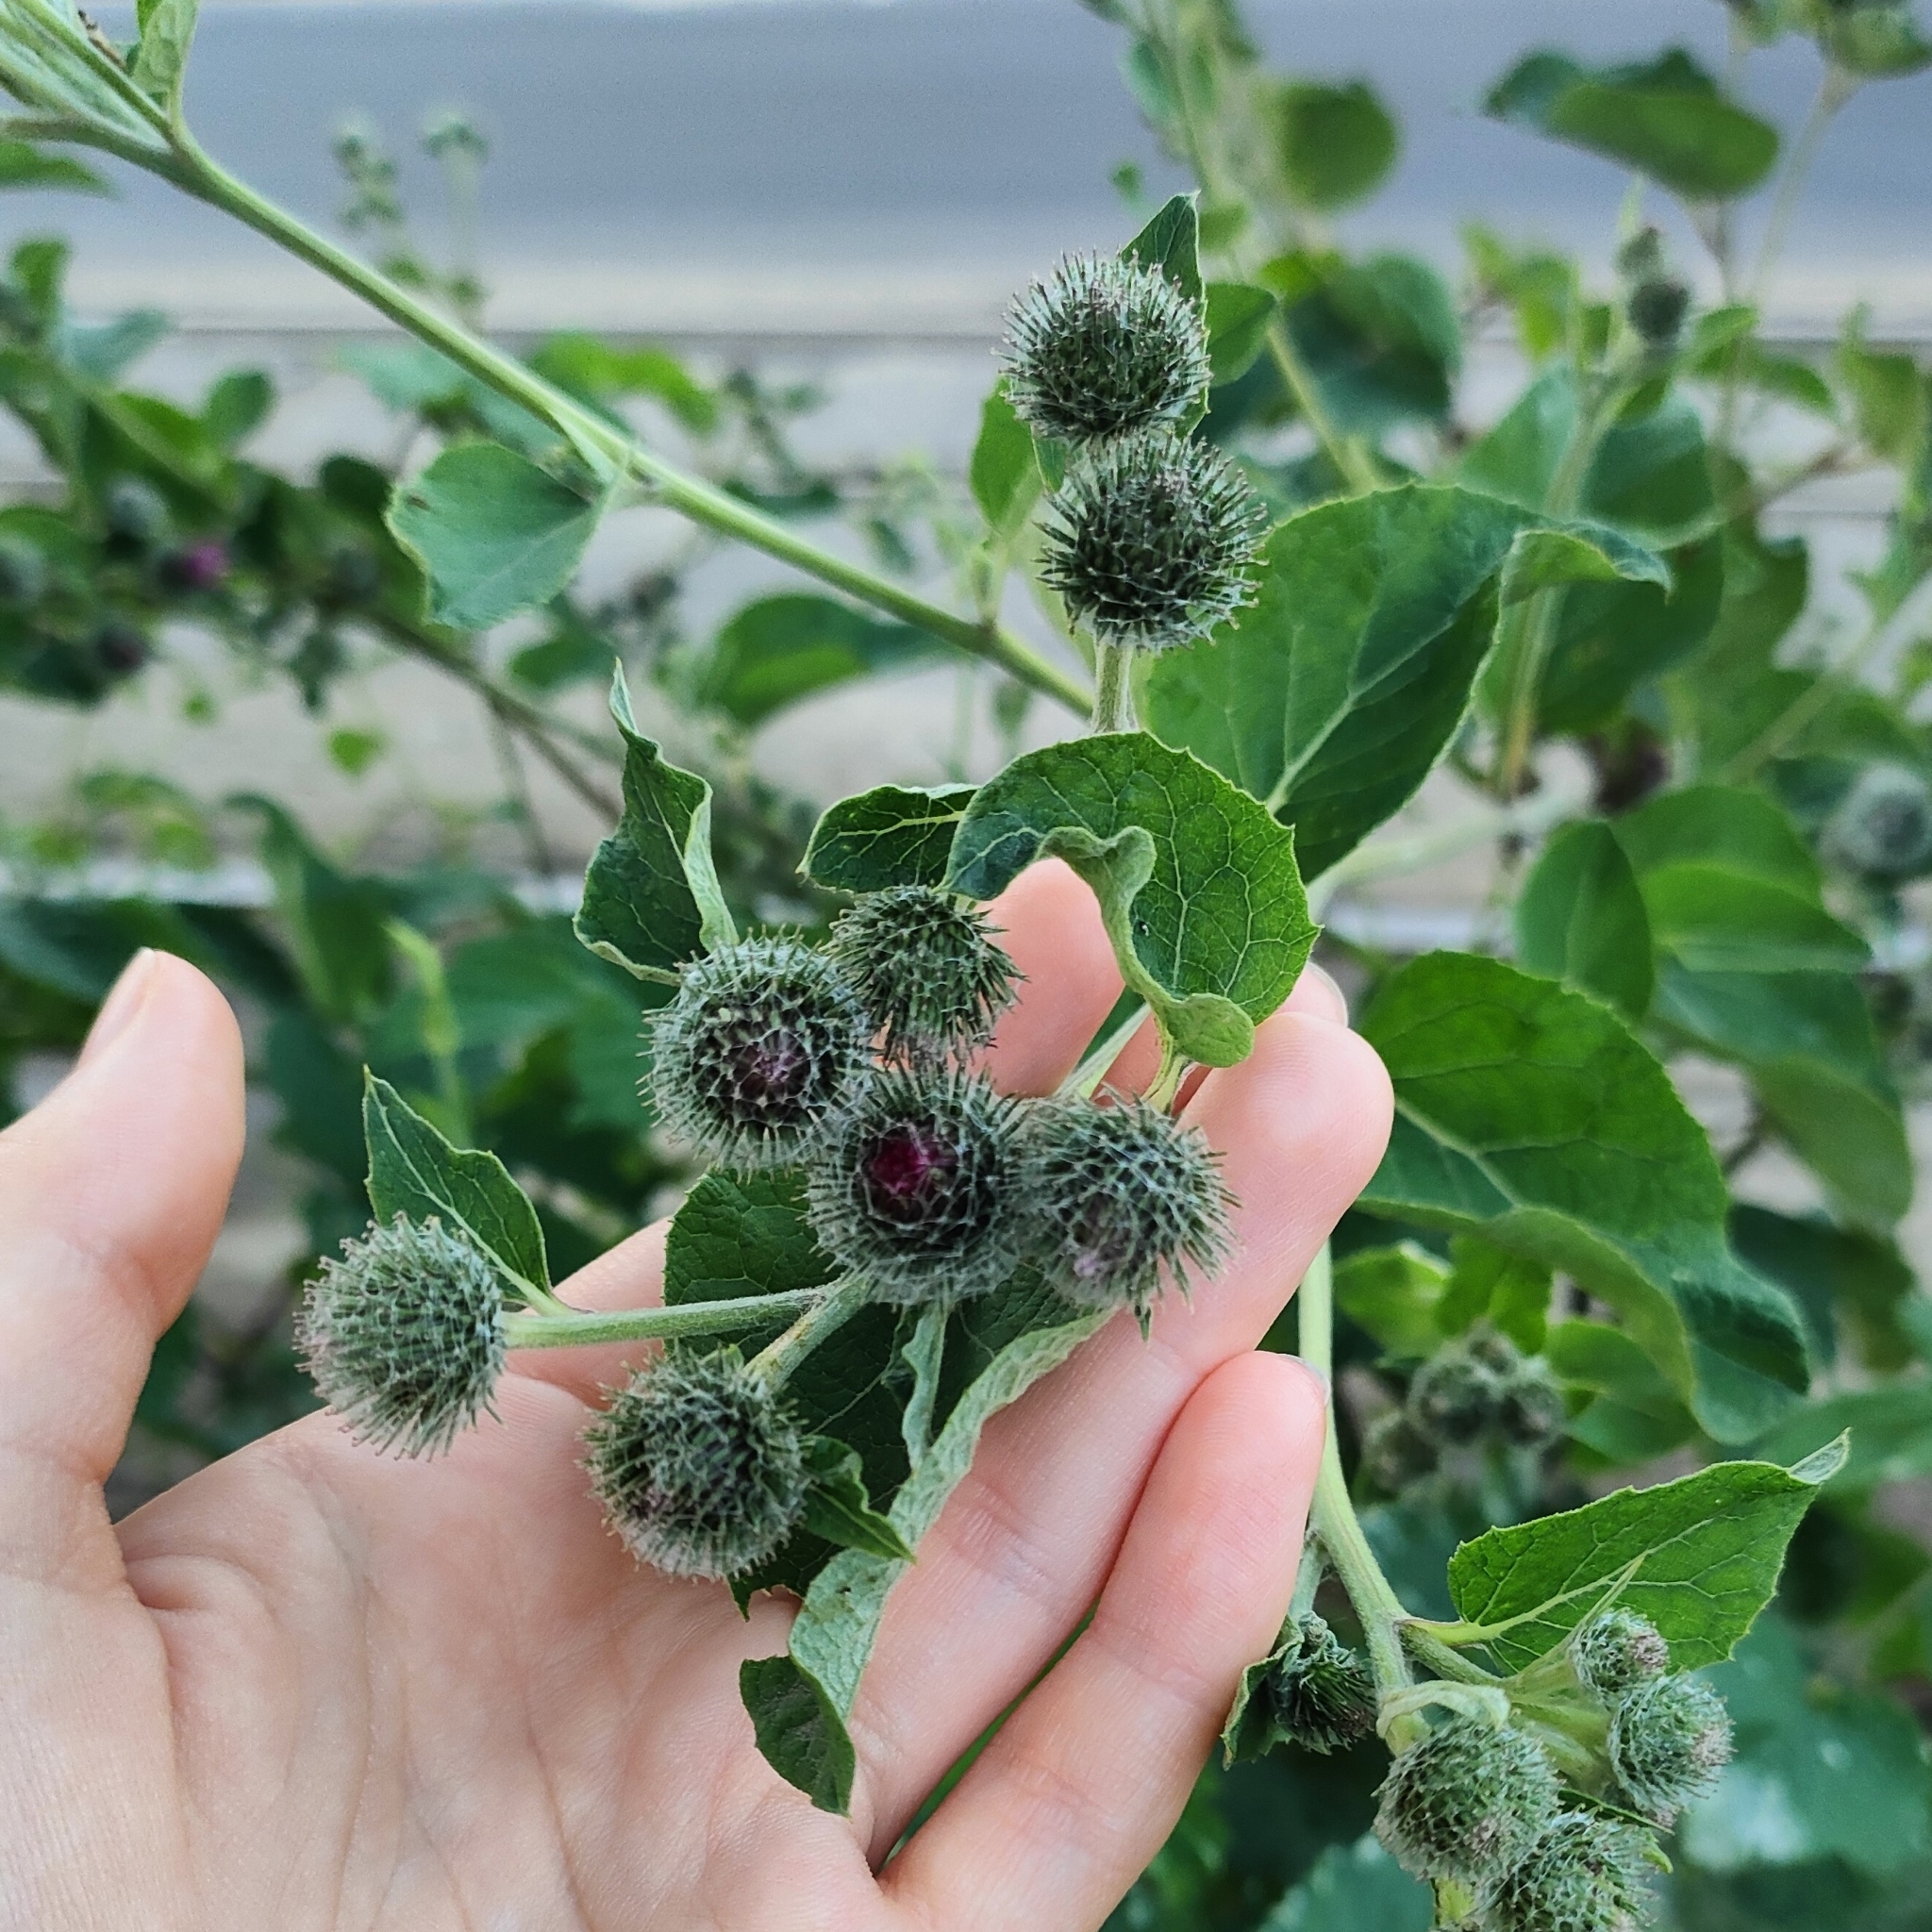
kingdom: Plantae
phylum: Tracheophyta
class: Magnoliopsida
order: Asterales
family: Asteraceae
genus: Arctium
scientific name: Arctium tomentosum
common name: Woolly burdock
